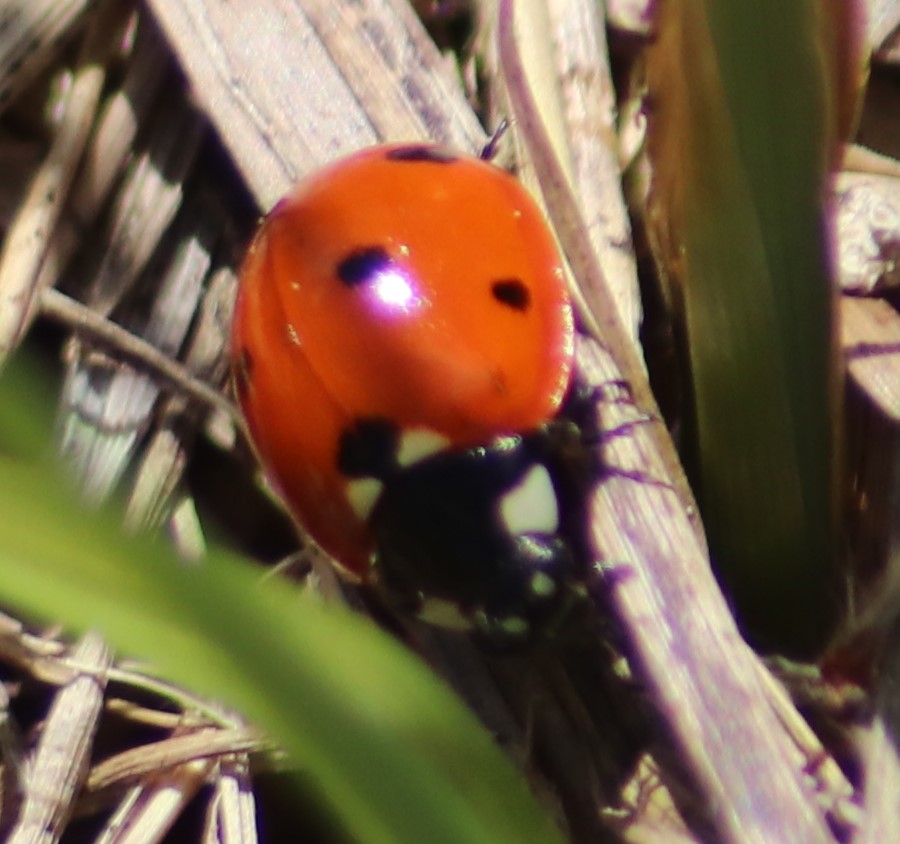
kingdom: Animalia
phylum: Arthropoda
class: Insecta
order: Coleoptera
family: Coccinellidae
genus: Coccinella
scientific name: Coccinella septempunctata
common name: Sevenspotted lady beetle
